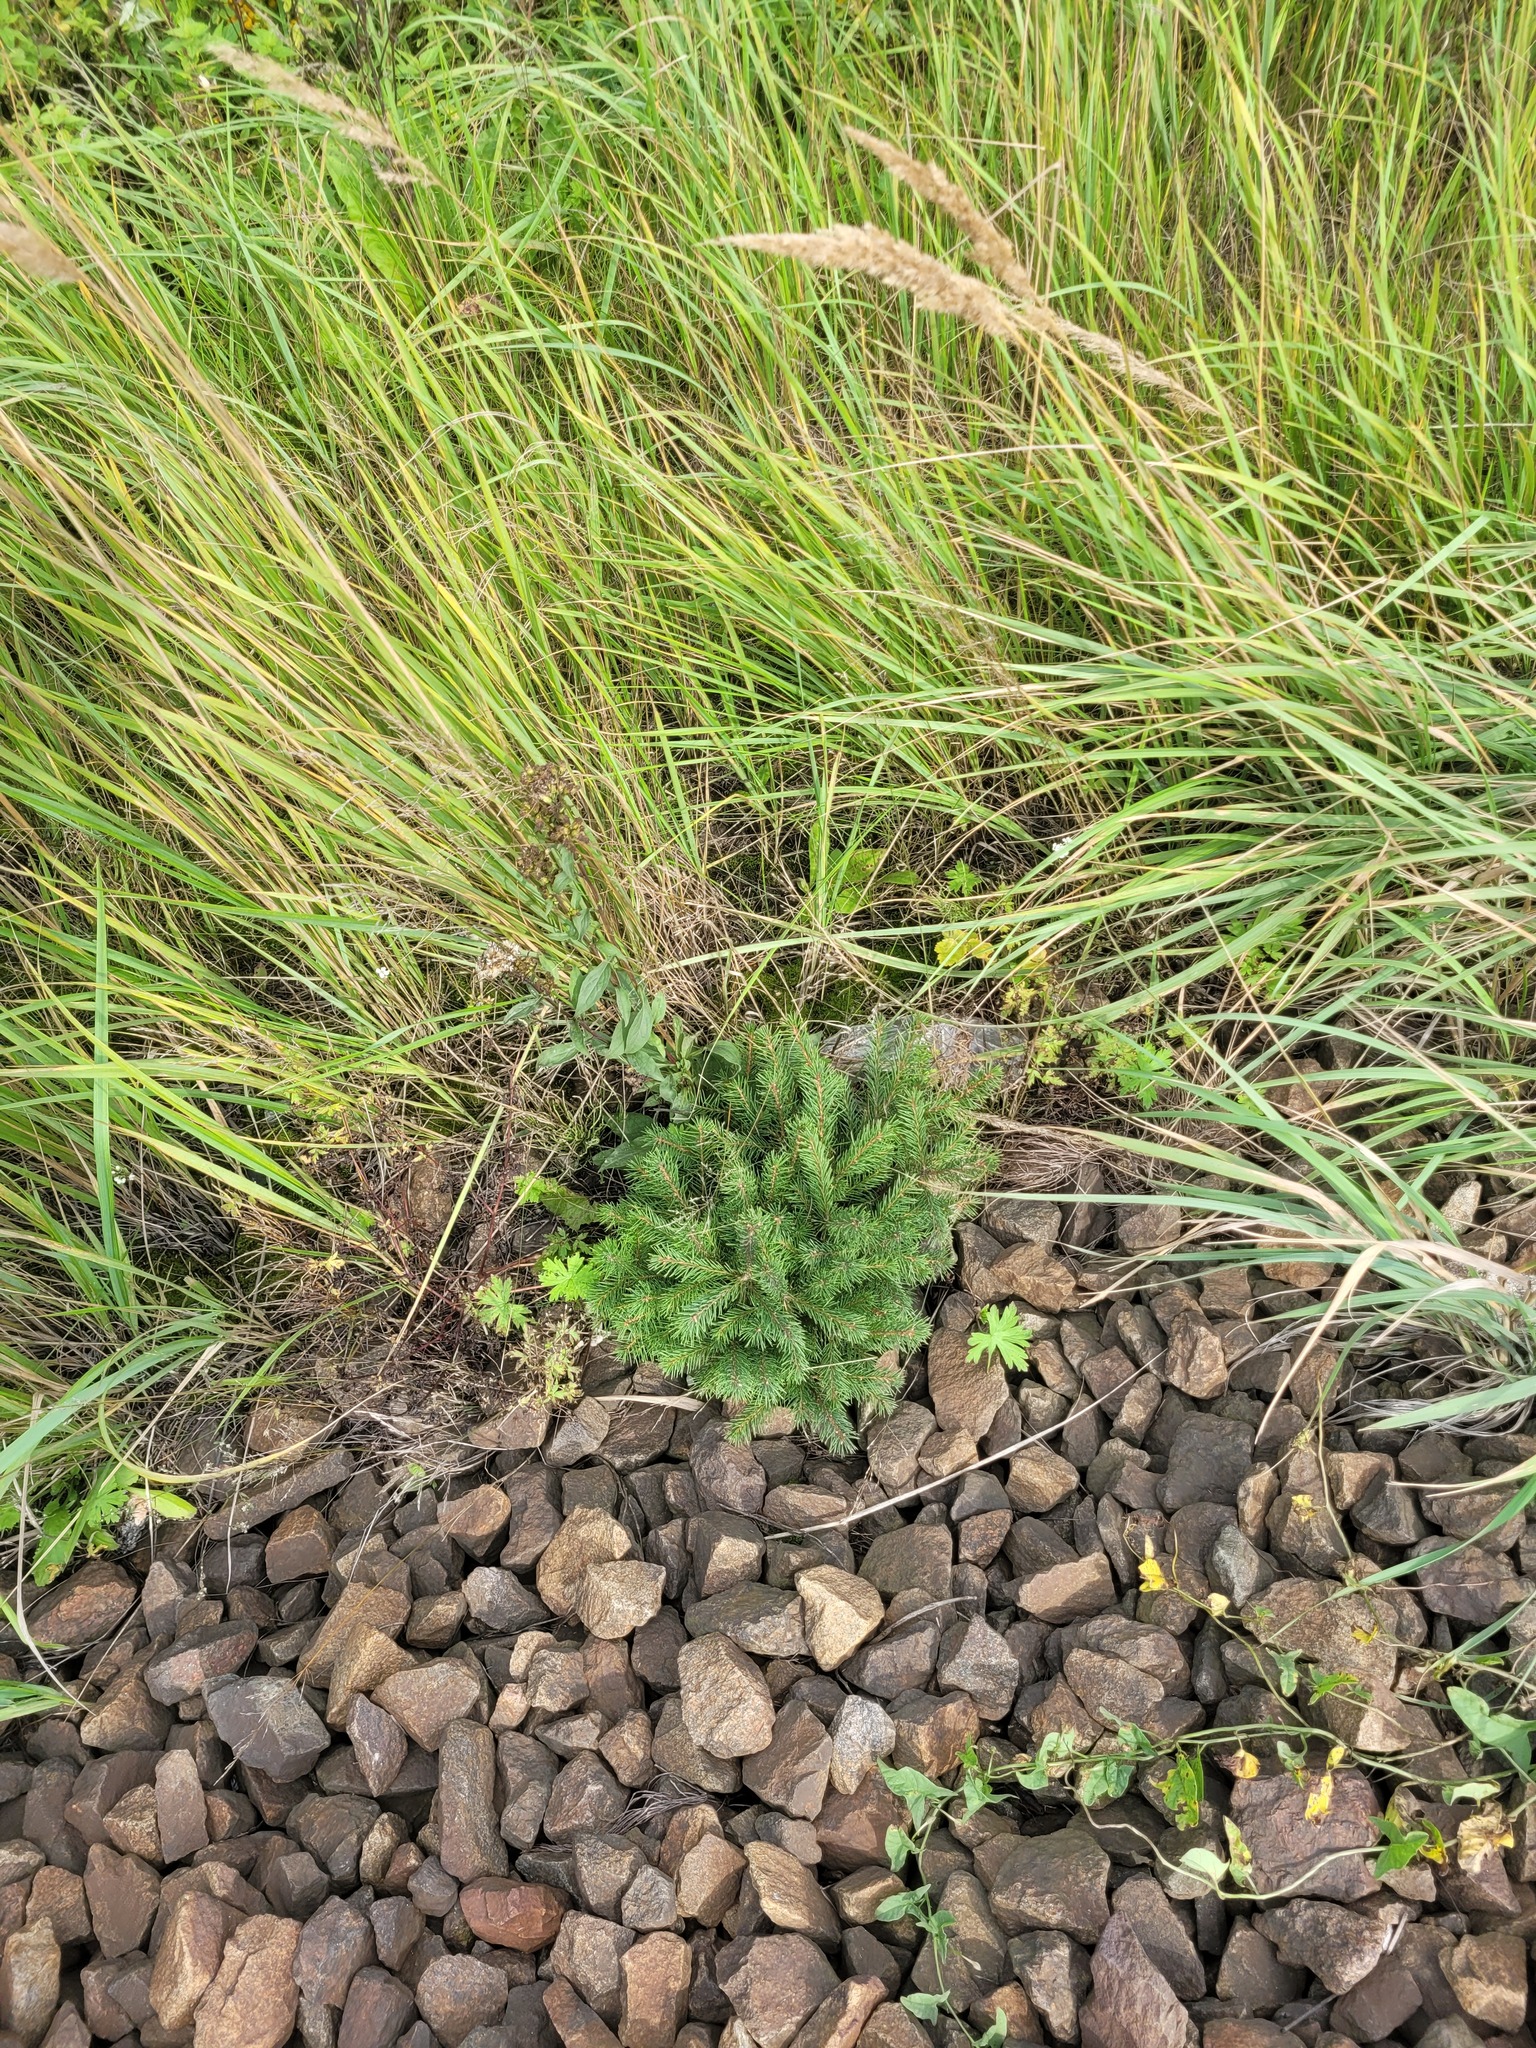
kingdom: Plantae
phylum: Tracheophyta
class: Pinopsida
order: Pinales
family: Pinaceae
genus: Picea
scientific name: Picea abies
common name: Norway spruce
